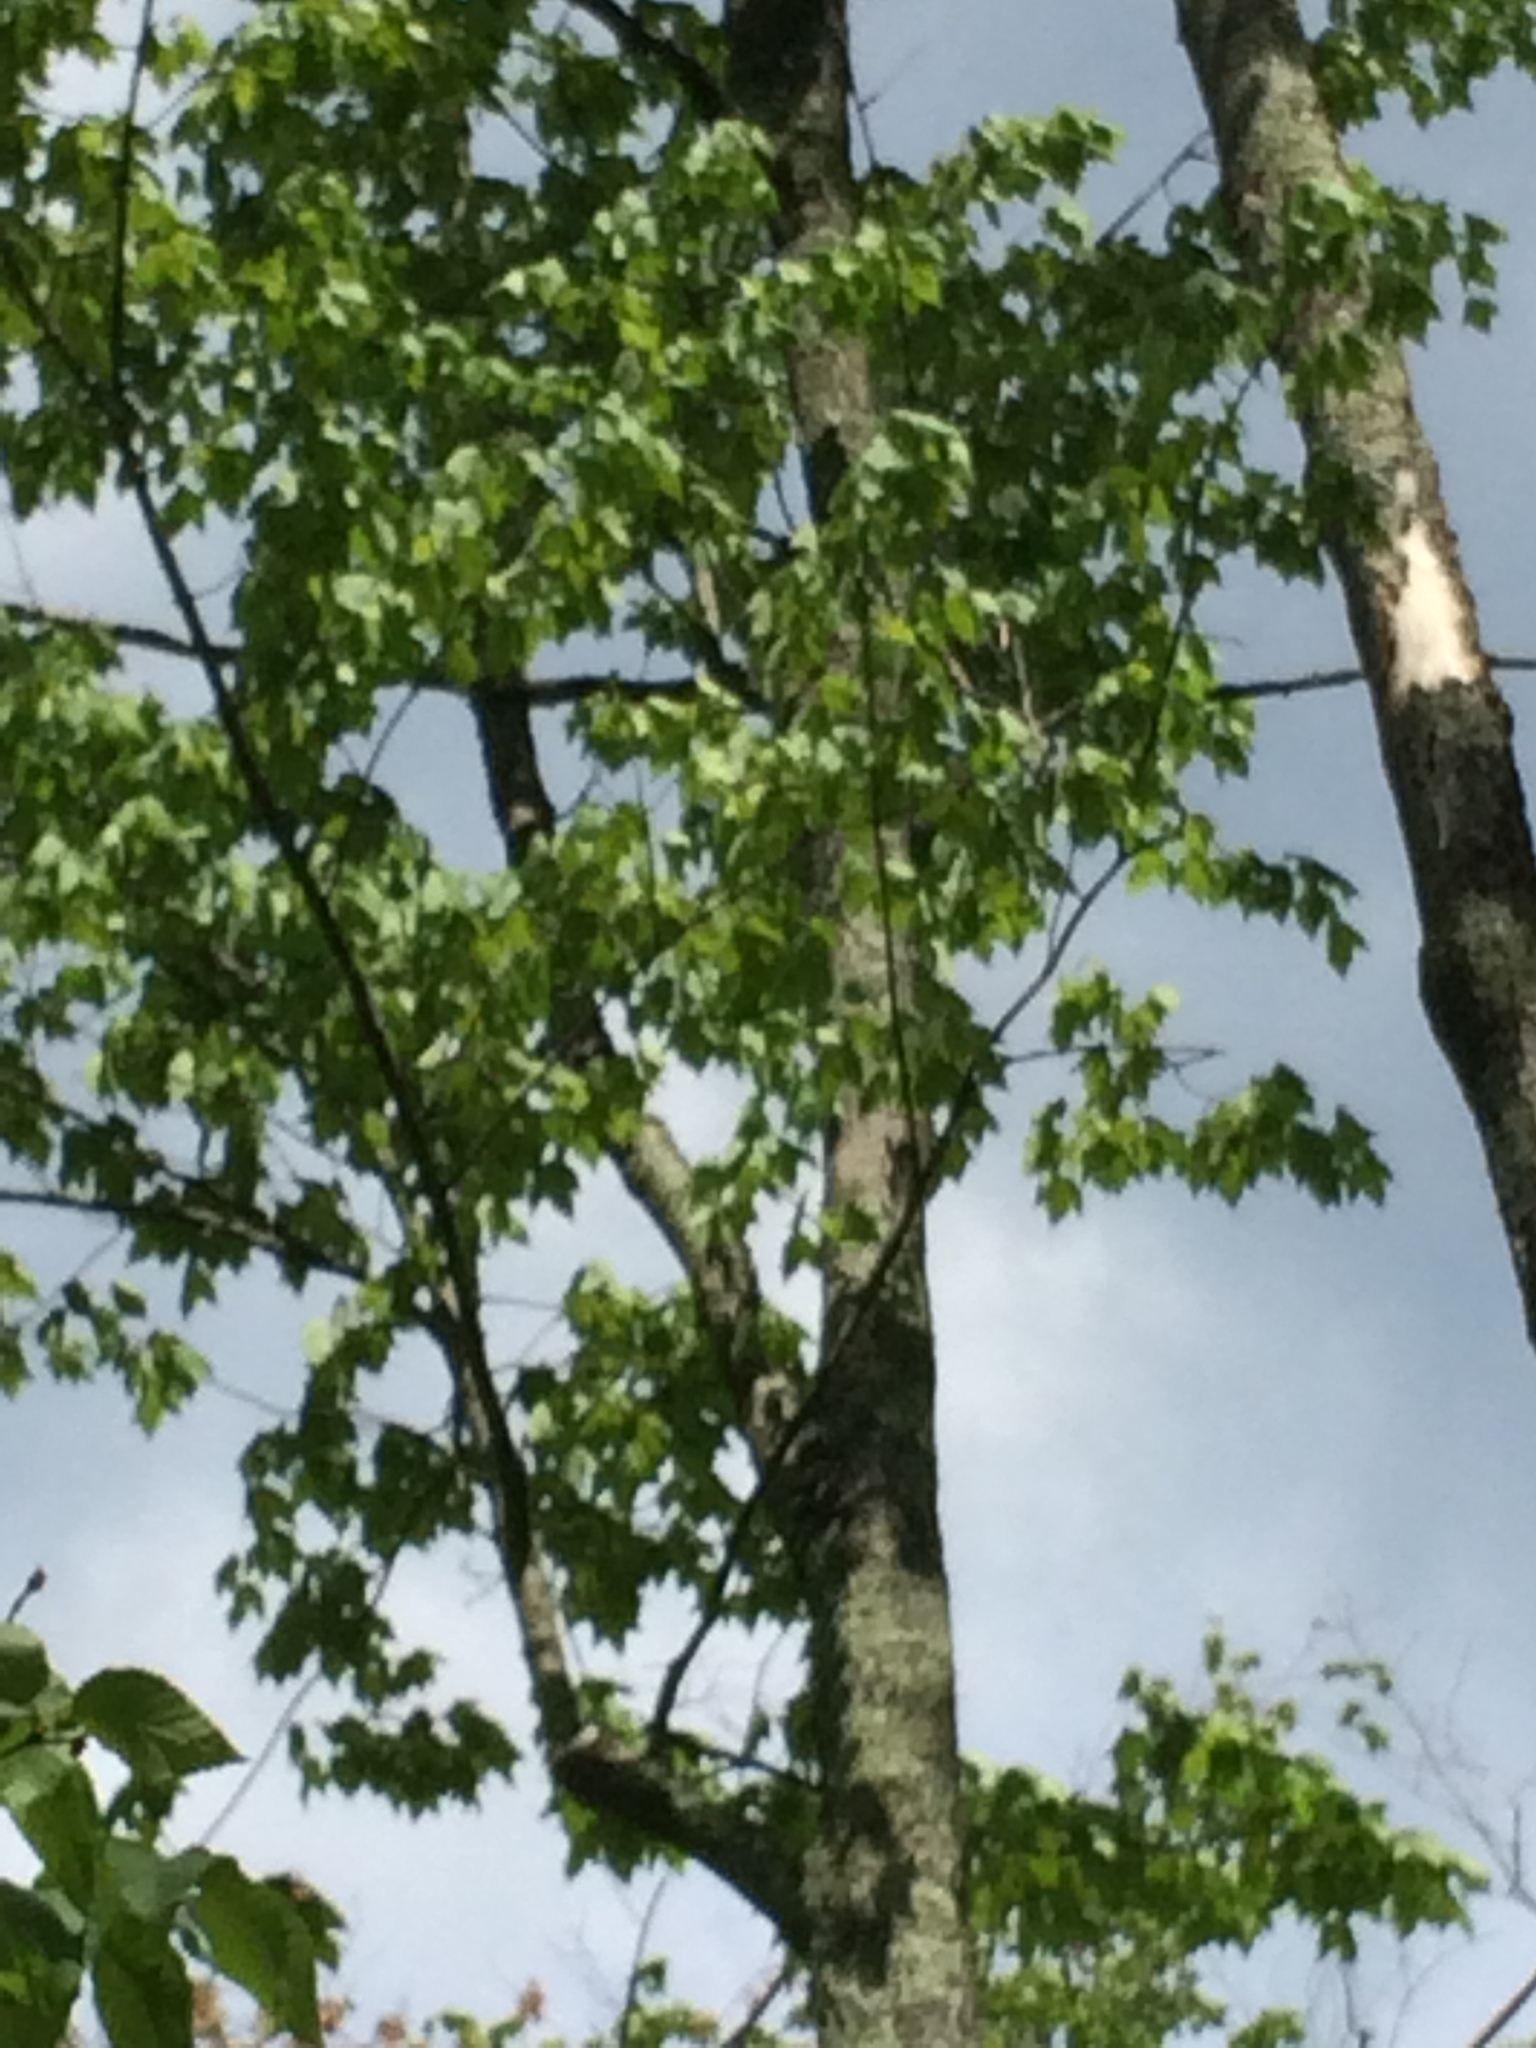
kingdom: Plantae
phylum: Tracheophyta
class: Magnoliopsida
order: Sapindales
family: Sapindaceae
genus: Acer
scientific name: Acer rubrum
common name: Red maple
